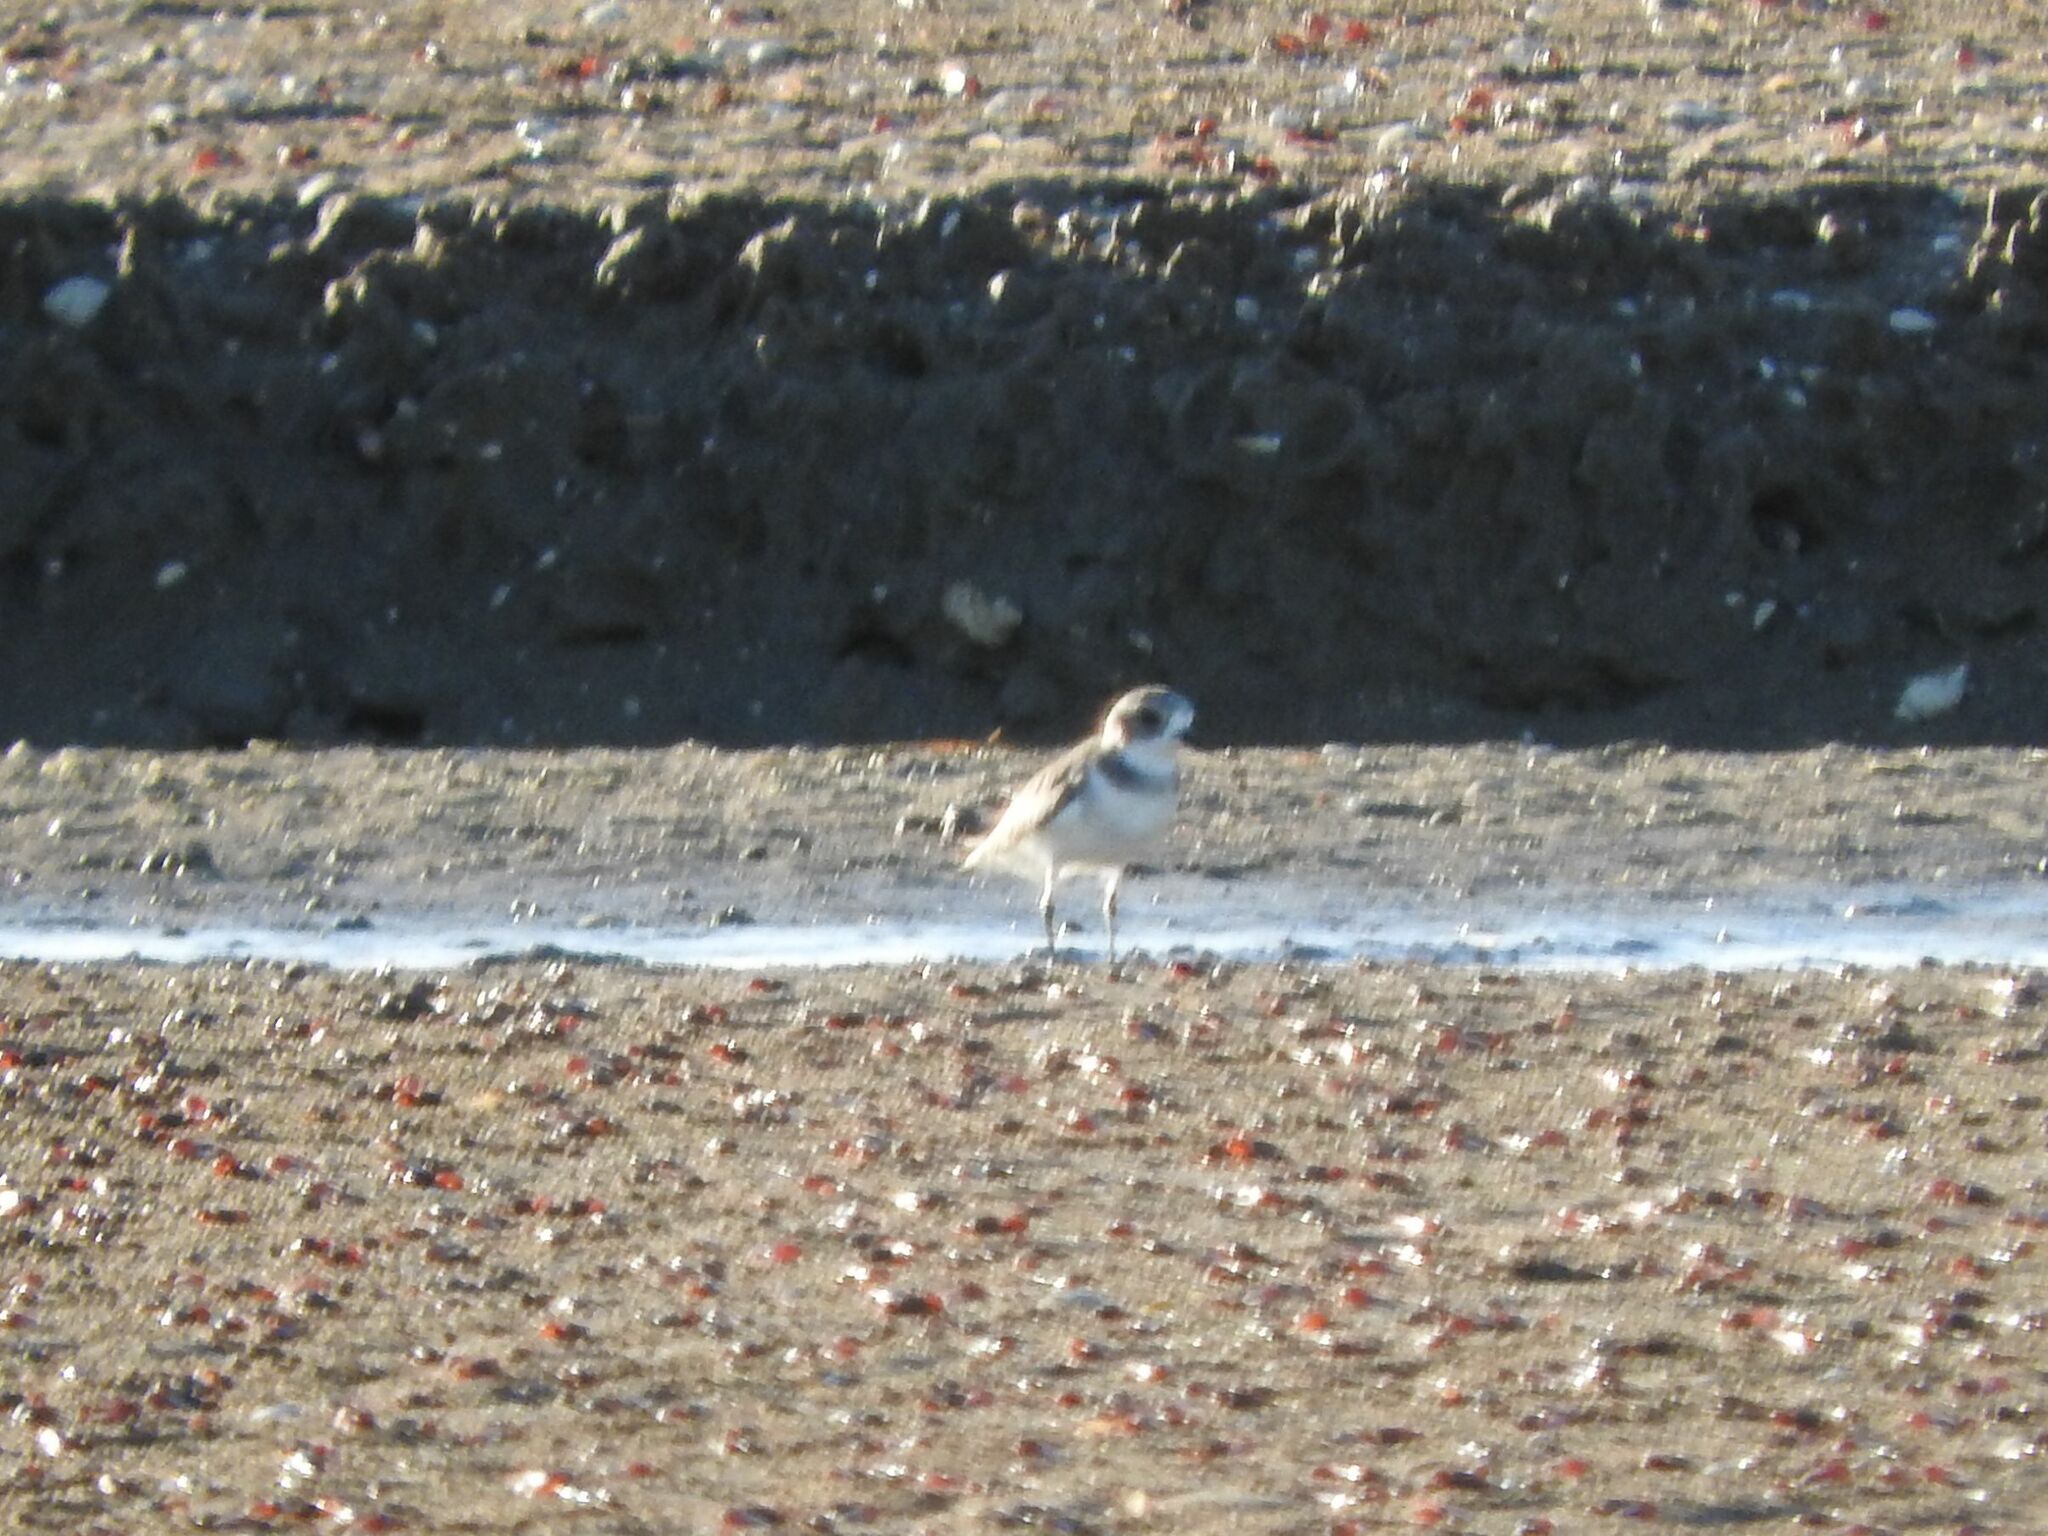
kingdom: Animalia
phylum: Chordata
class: Aves
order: Charadriiformes
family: Charadriidae
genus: Anarhynchus
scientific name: Anarhynchus
